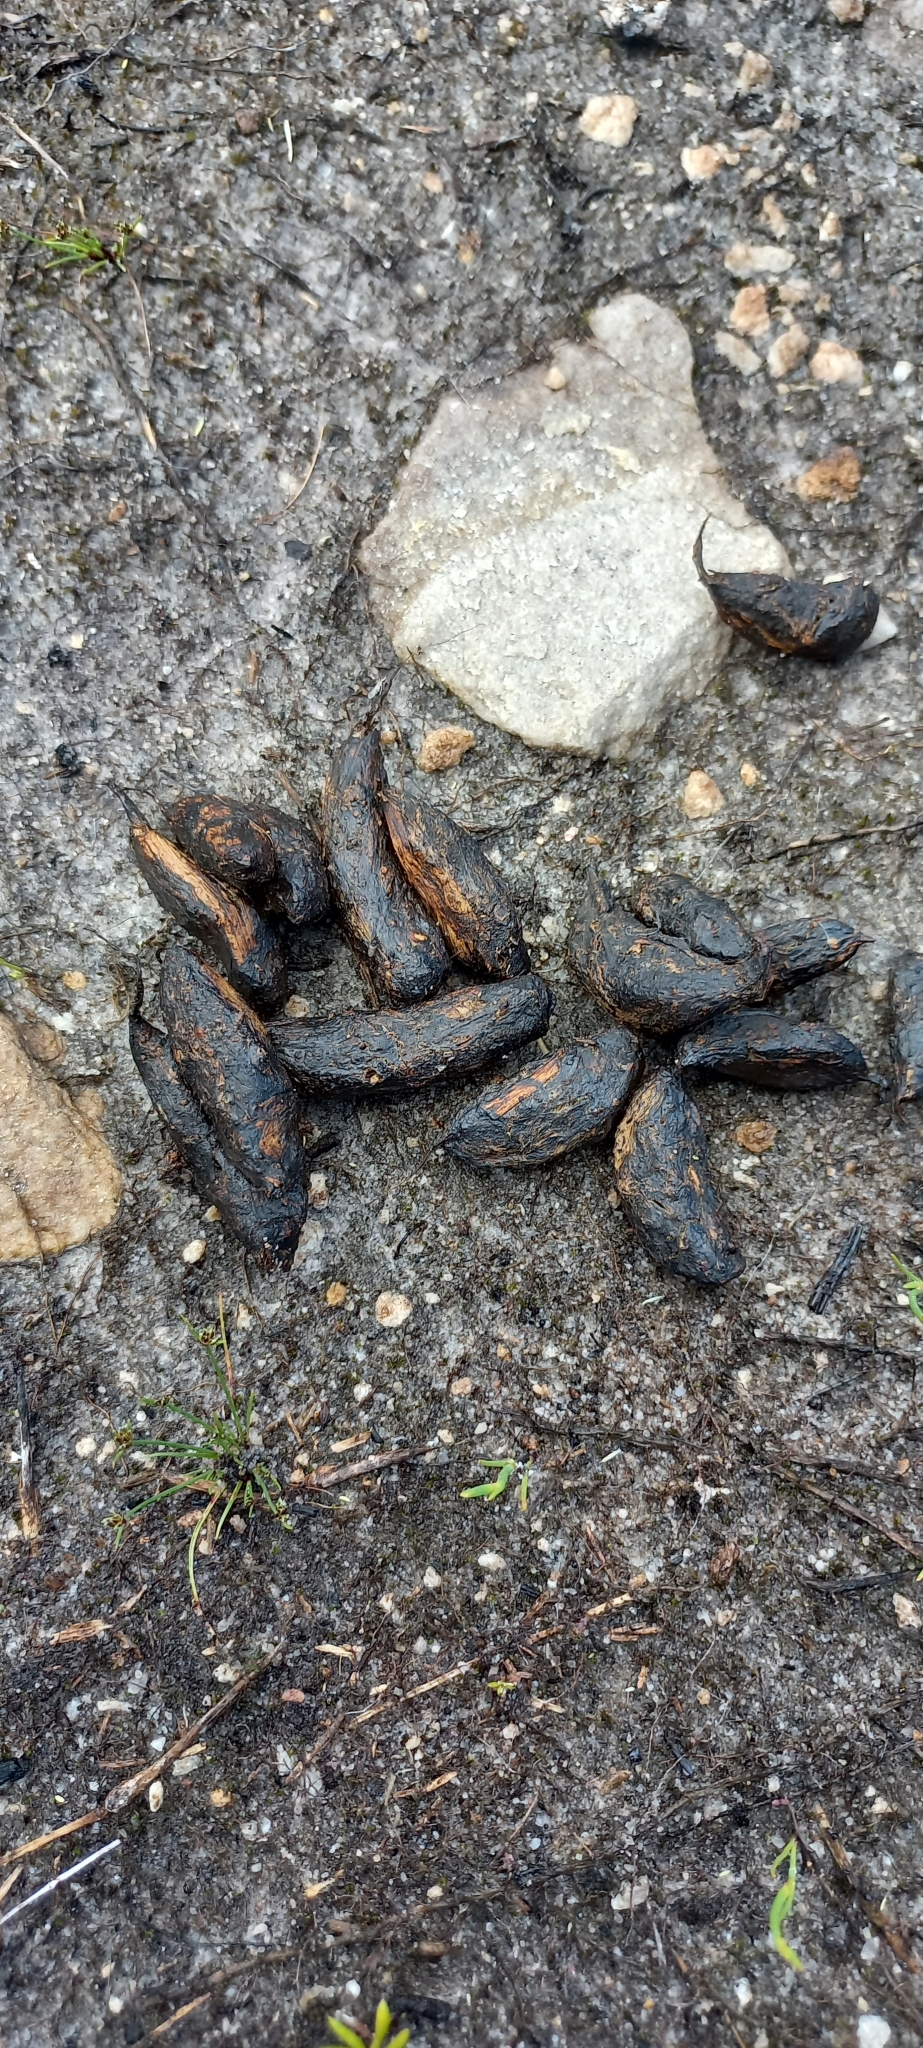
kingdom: Animalia
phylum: Chordata
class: Mammalia
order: Rodentia
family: Hystricidae
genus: Hystrix
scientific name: Hystrix africaeaustralis
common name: Cape porcupine
